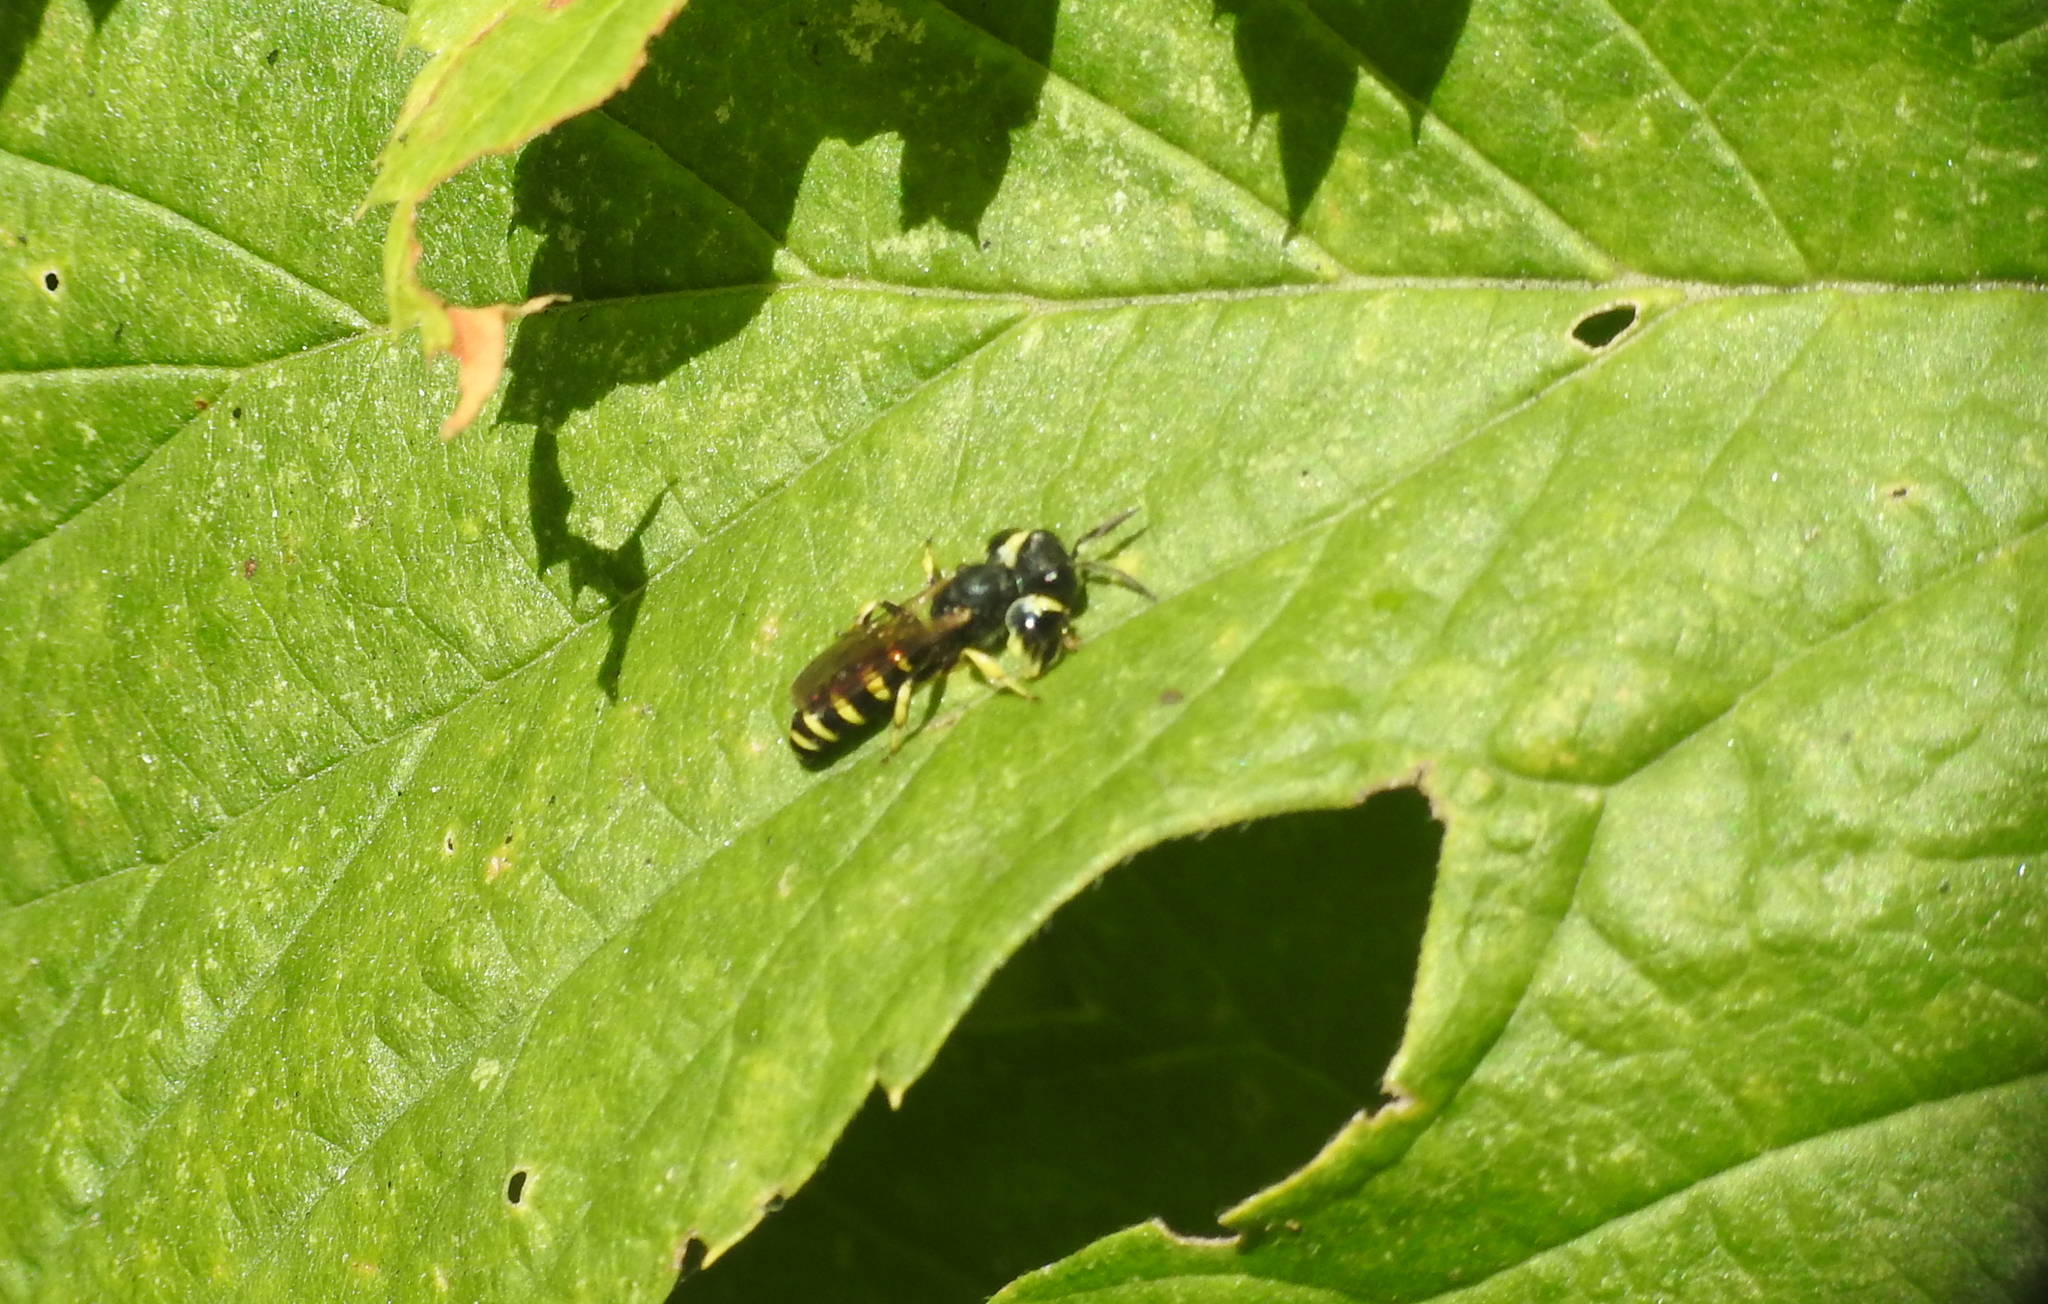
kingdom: Animalia
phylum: Arthropoda
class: Insecta
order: Hymenoptera
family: Crabronidae
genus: Crabro
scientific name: Crabro latipes
